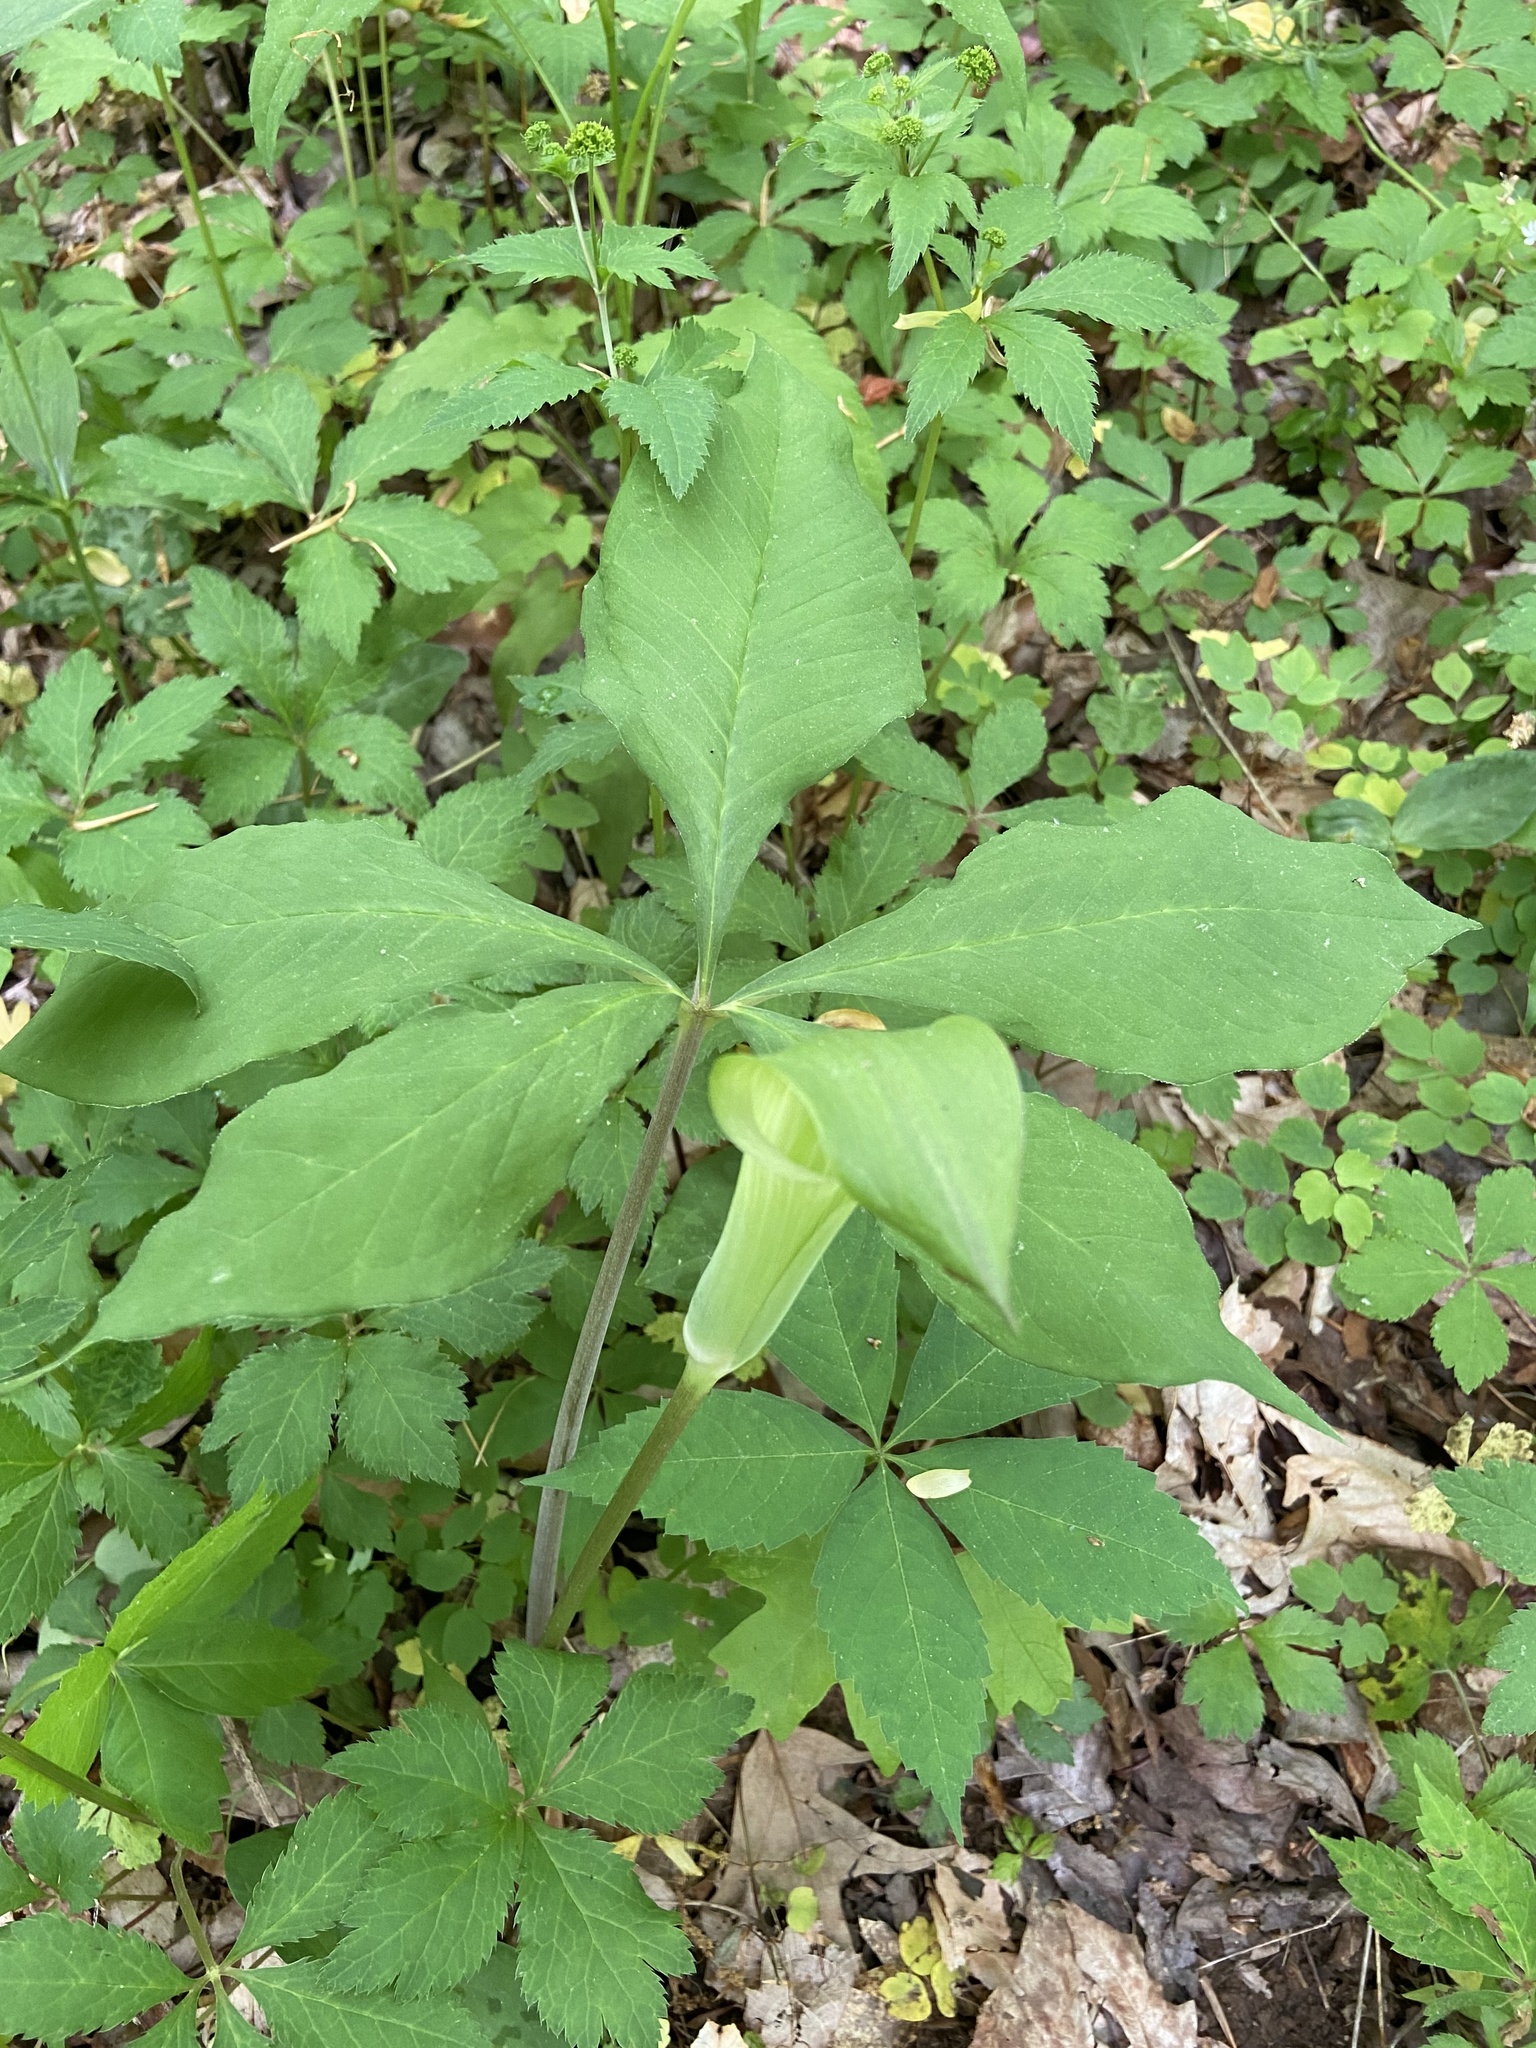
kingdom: Plantae
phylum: Tracheophyta
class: Liliopsida
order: Alismatales
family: Araceae
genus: Arisaema
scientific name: Arisaema quinatum
